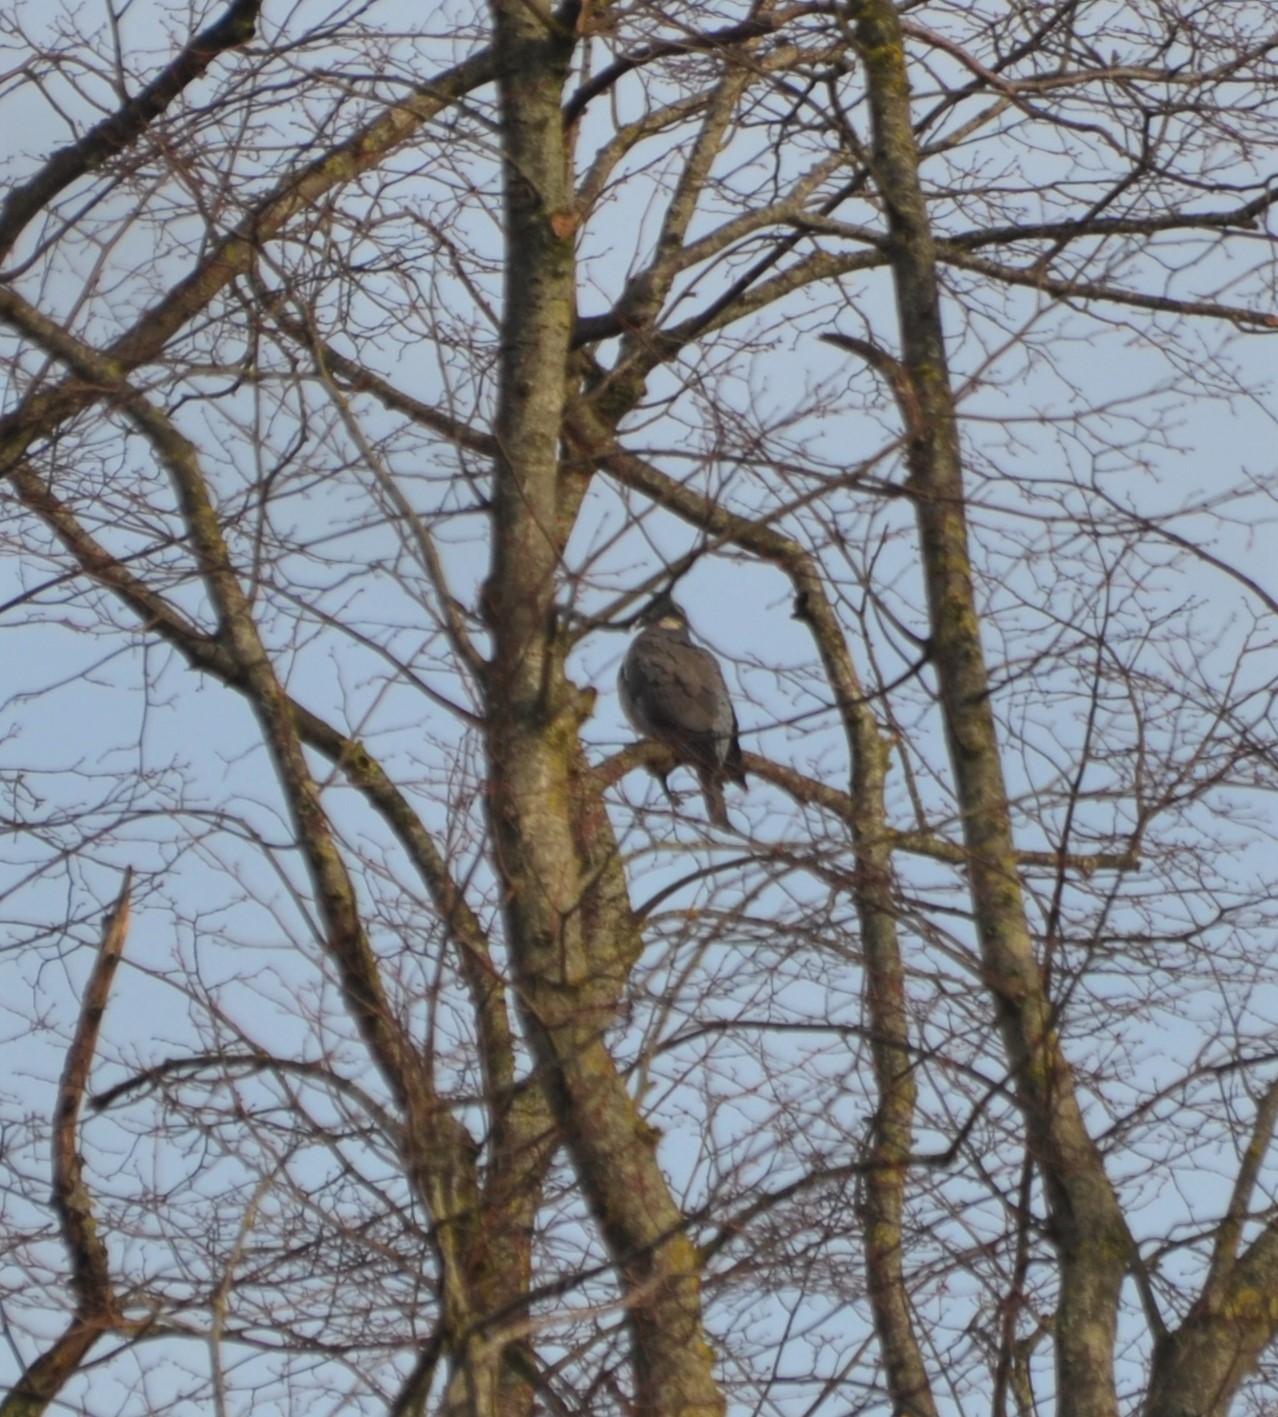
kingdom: Animalia
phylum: Chordata
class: Aves
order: Columbiformes
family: Columbidae
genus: Columba
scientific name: Columba palumbus
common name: Common wood pigeon
